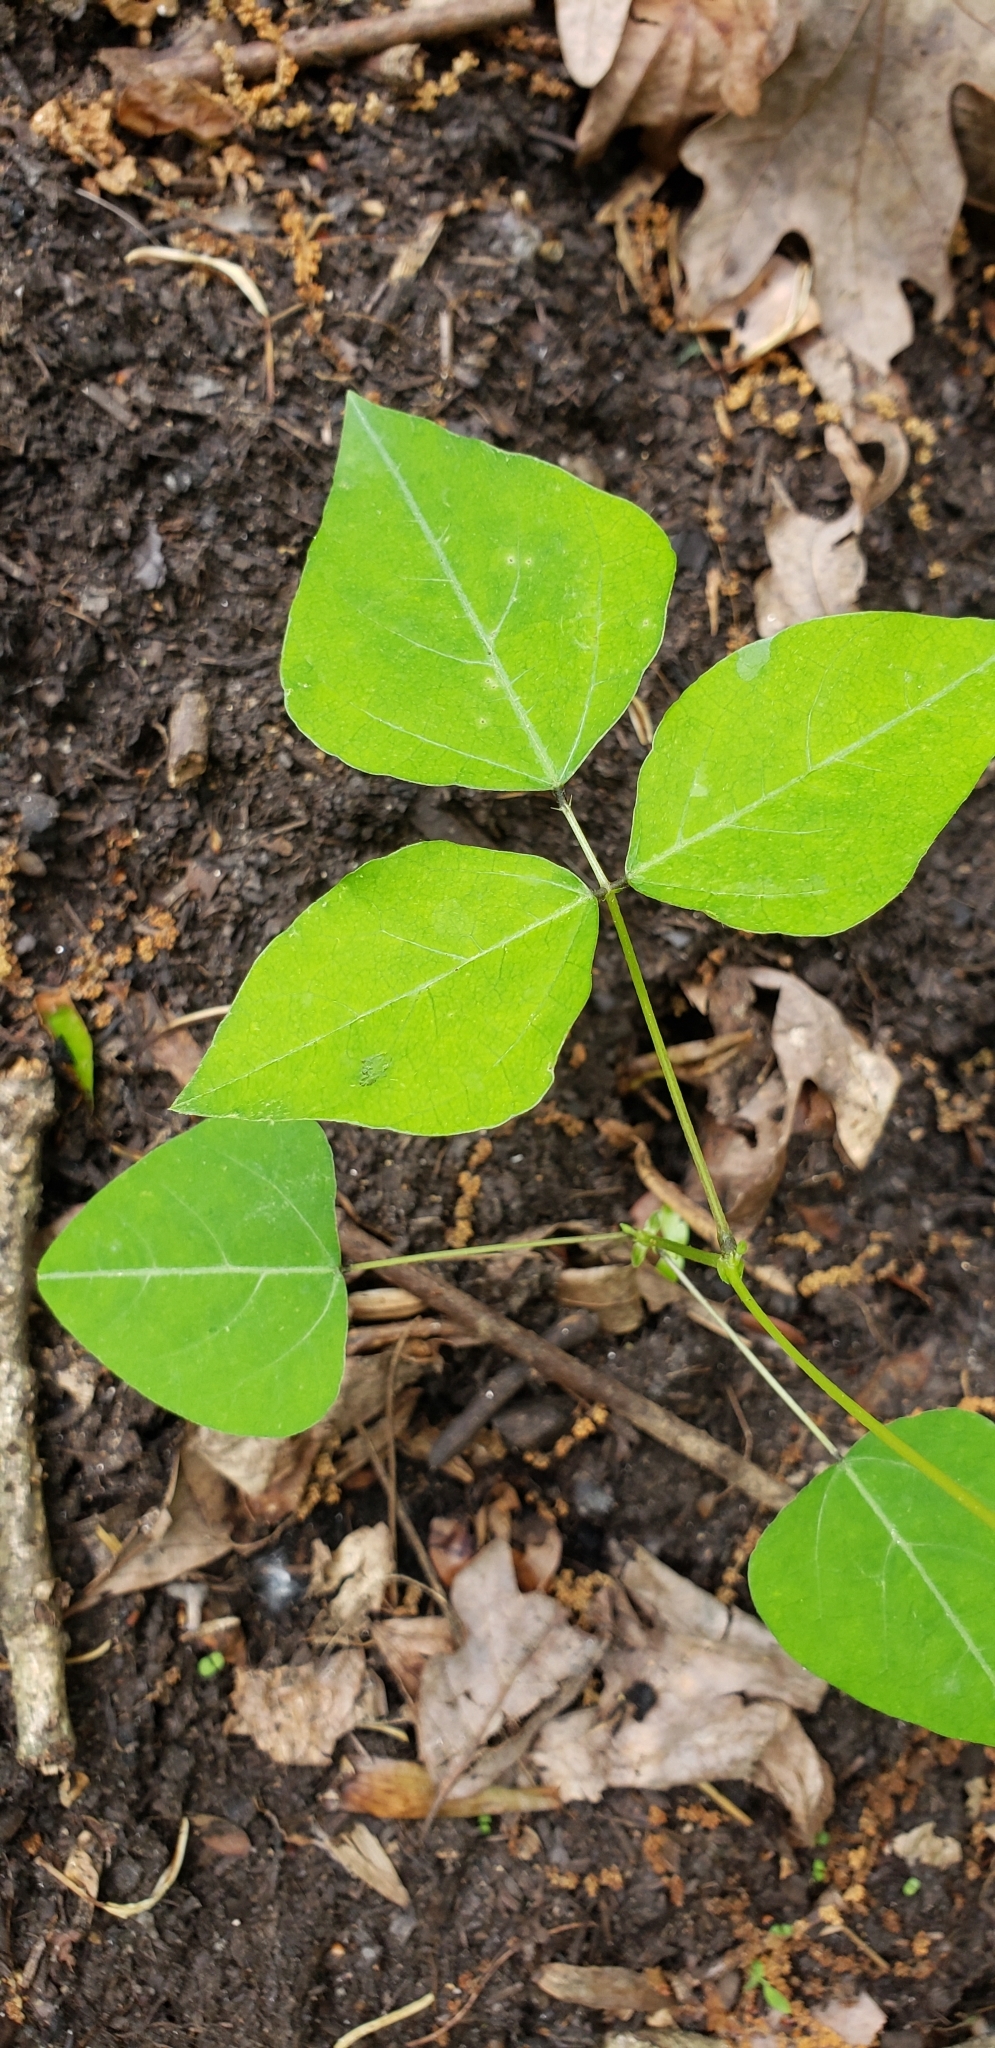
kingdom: Plantae
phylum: Tracheophyta
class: Magnoliopsida
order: Fabales
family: Fabaceae
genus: Amphicarpaea
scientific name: Amphicarpaea bracteata
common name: American hog peanut
